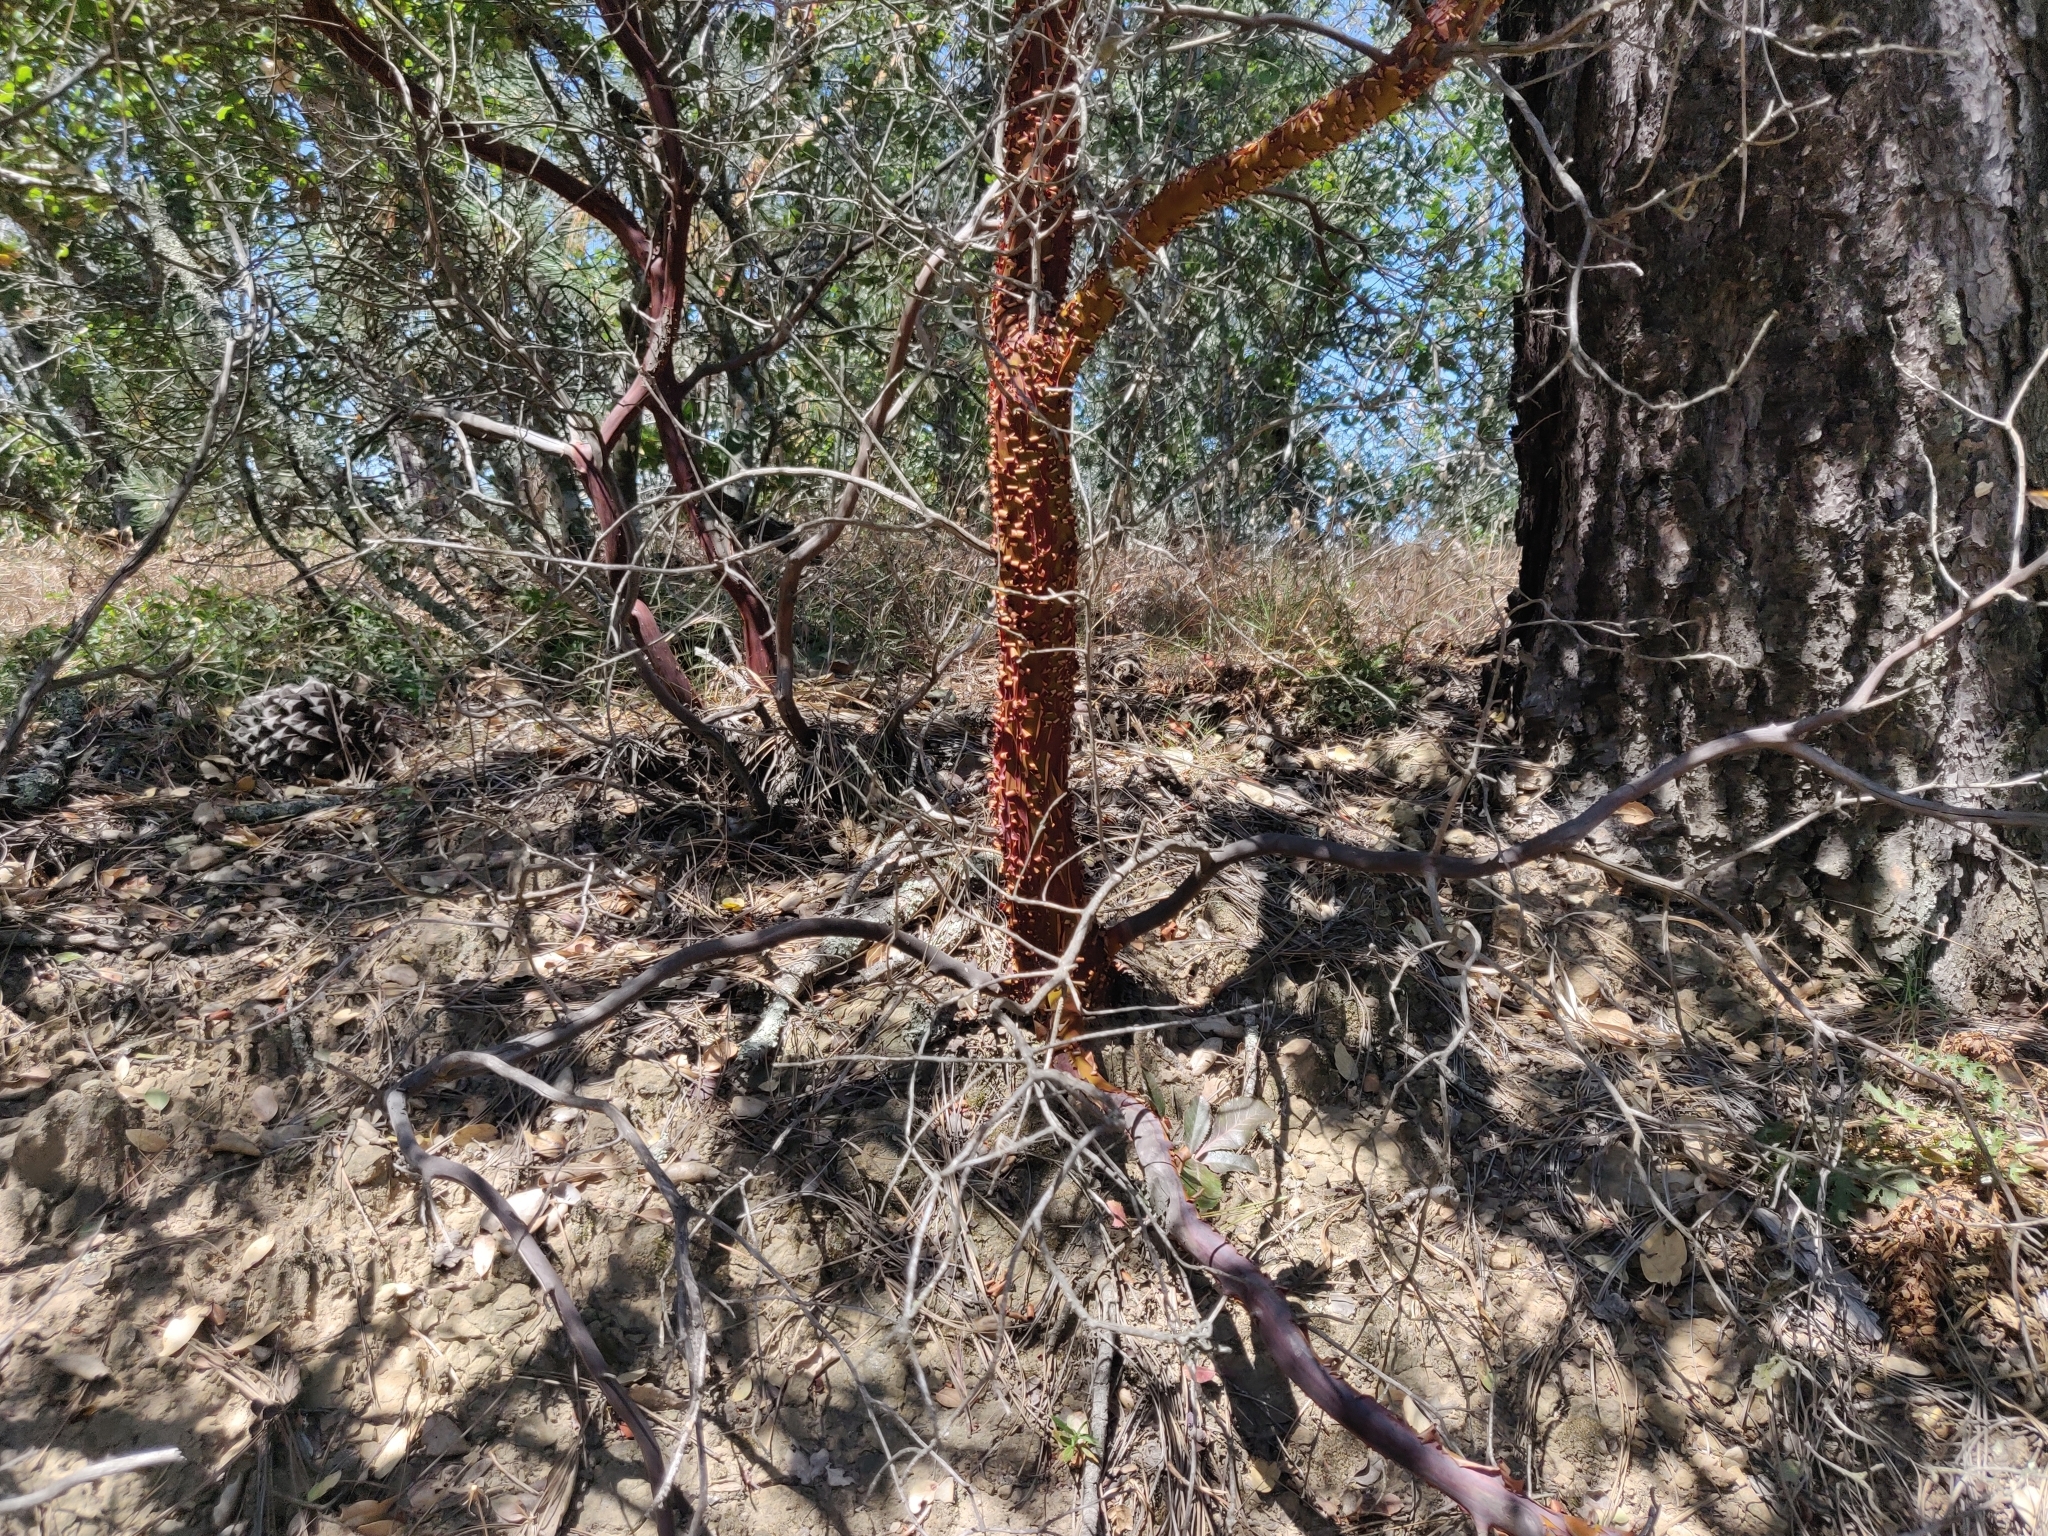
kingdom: Plantae
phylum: Tracheophyta
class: Magnoliopsida
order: Ericales
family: Ericaceae
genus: Arctostaphylos
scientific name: Arctostaphylos auriculata
